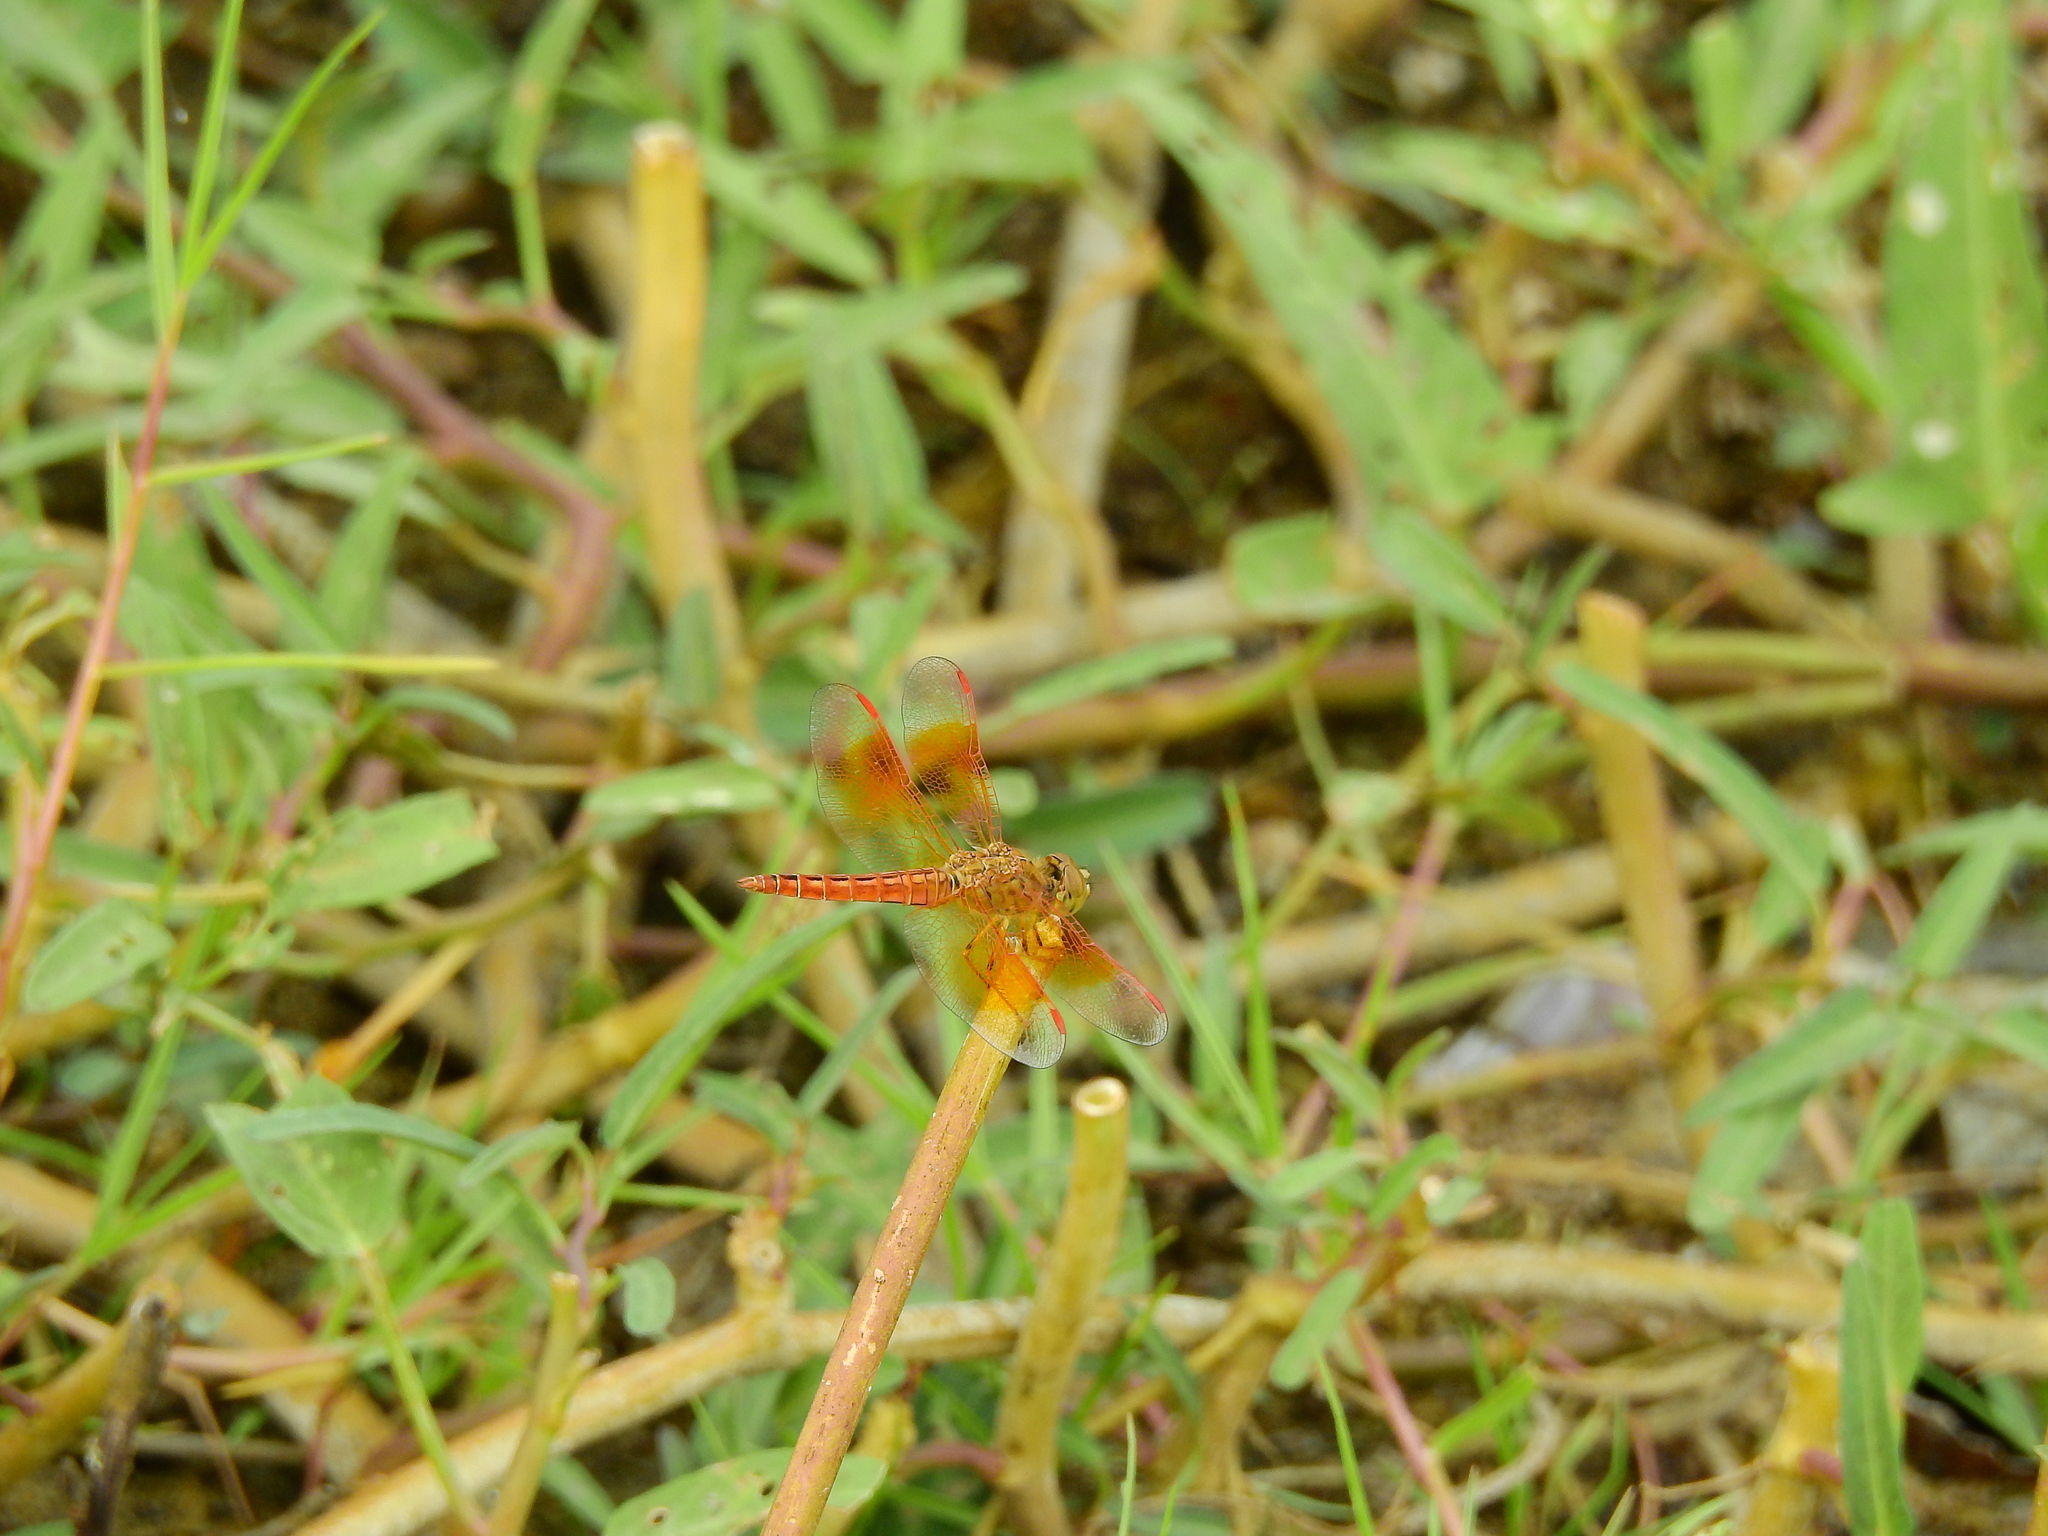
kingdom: Animalia
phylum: Arthropoda
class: Insecta
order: Odonata
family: Libellulidae
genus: Brachythemis
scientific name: Brachythemis contaminata
